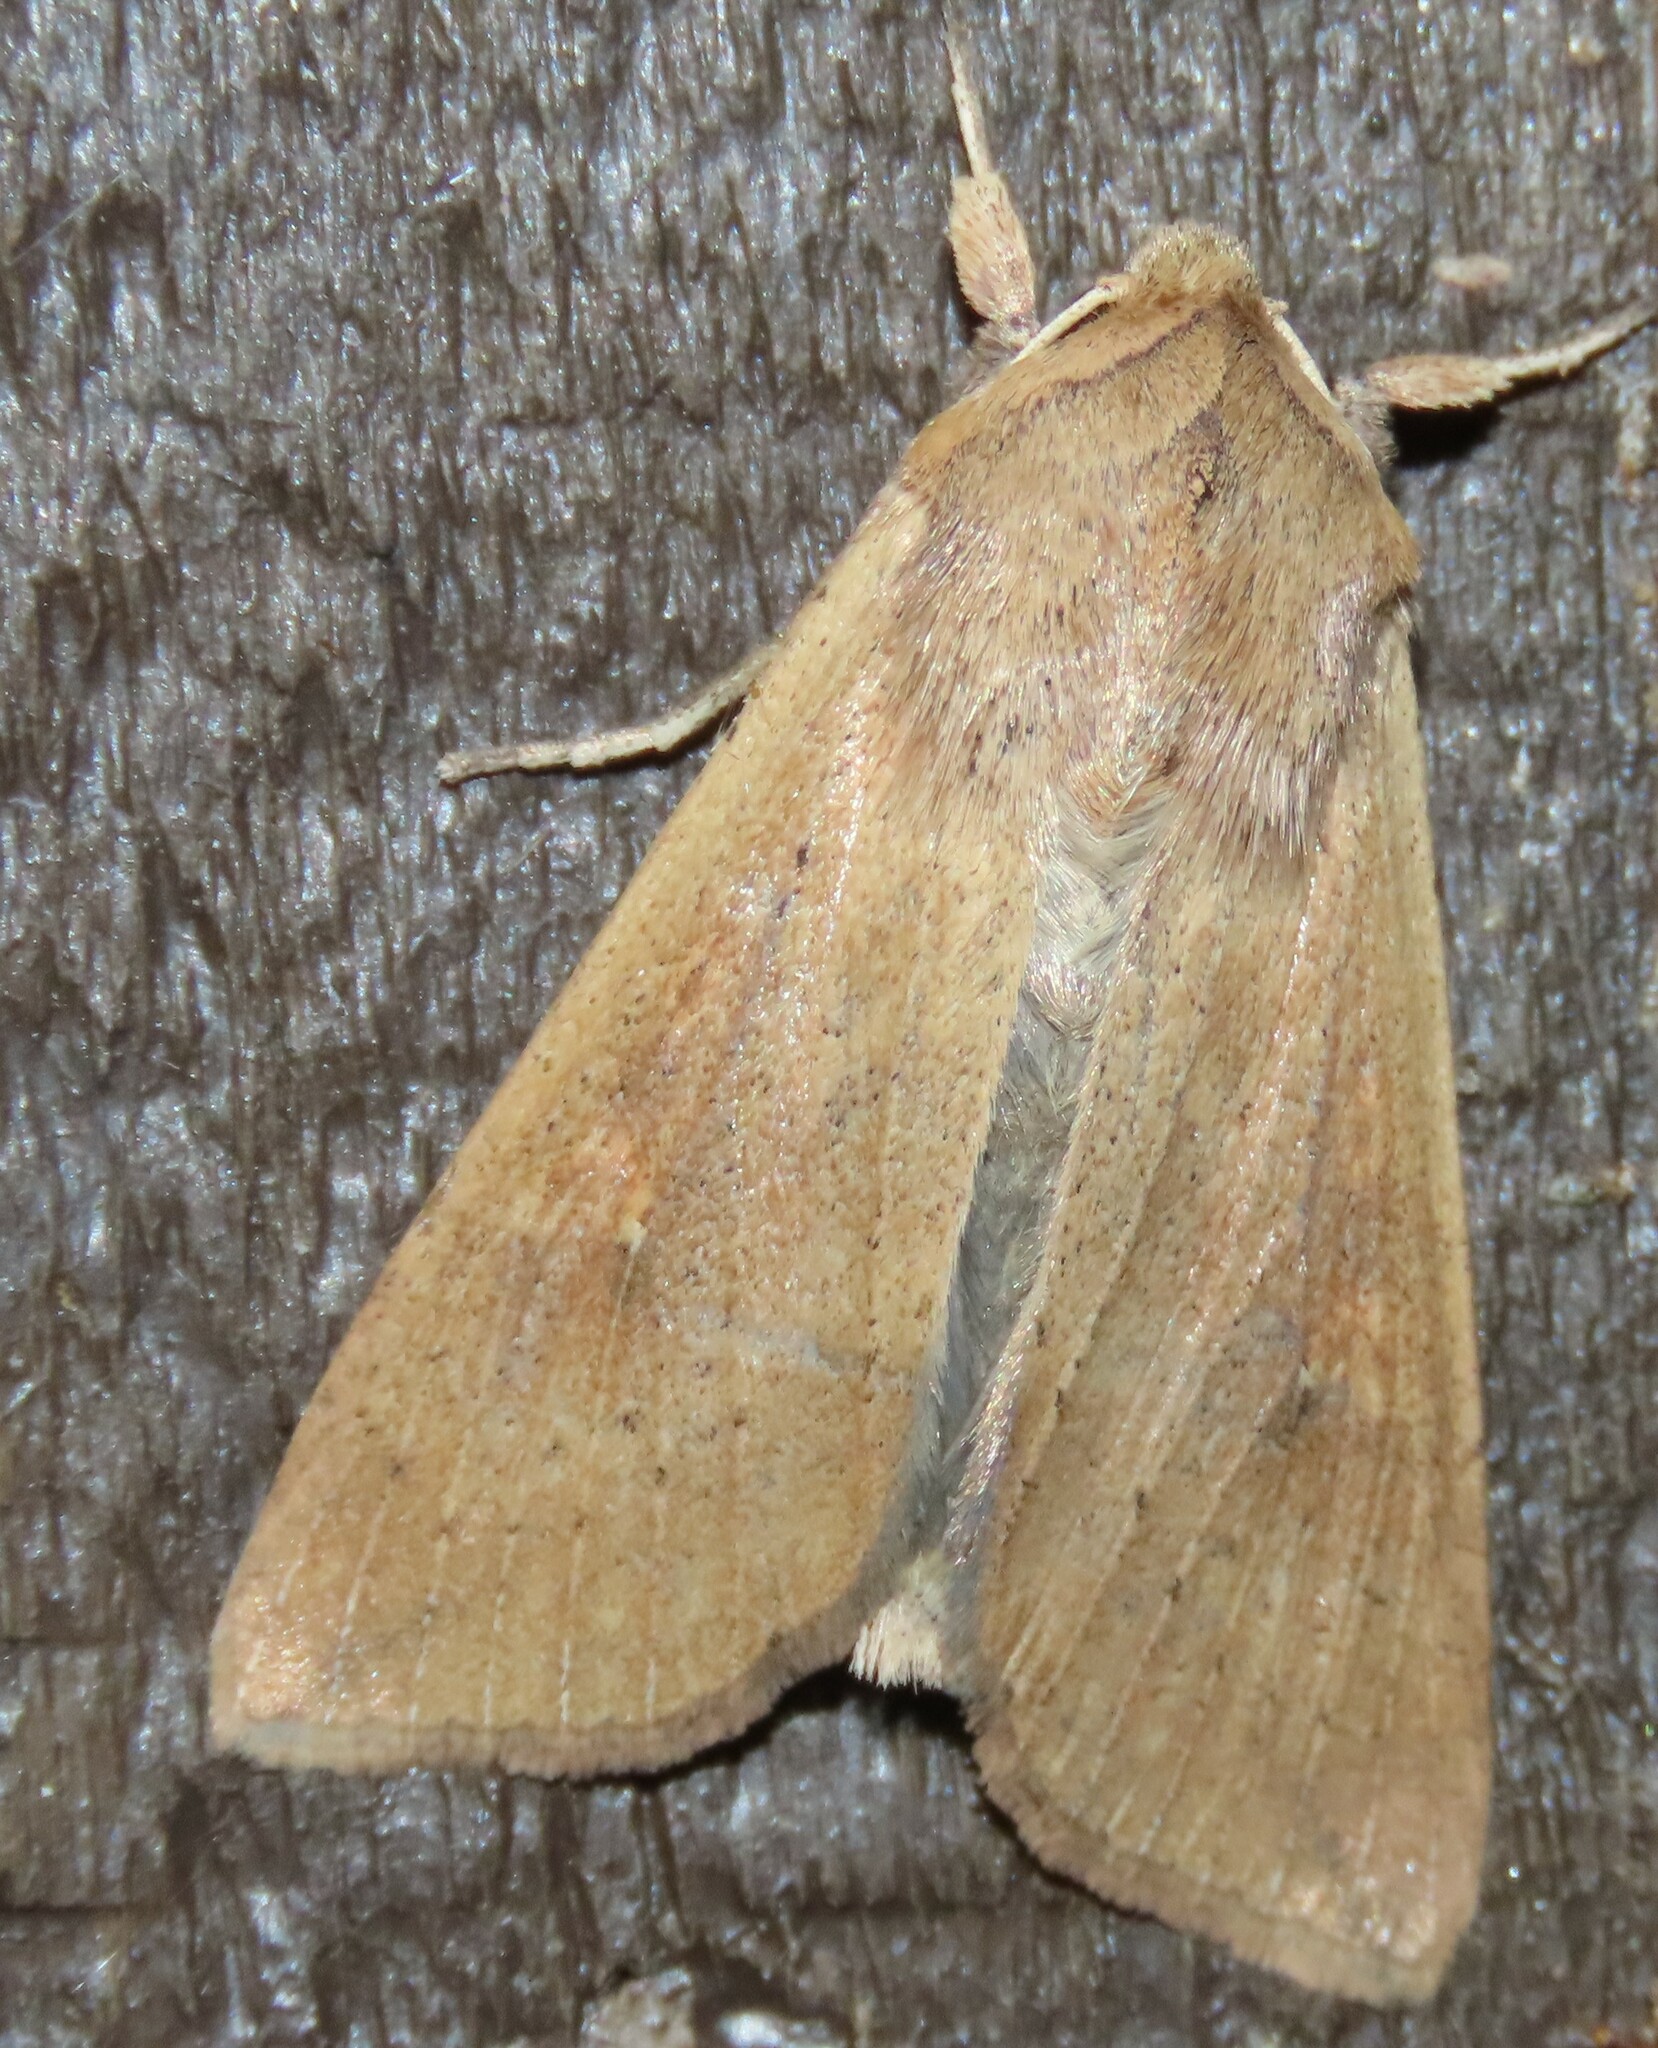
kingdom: Animalia
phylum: Arthropoda
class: Insecta
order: Lepidoptera
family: Noctuidae
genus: Mythimna
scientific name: Mythimna separata
